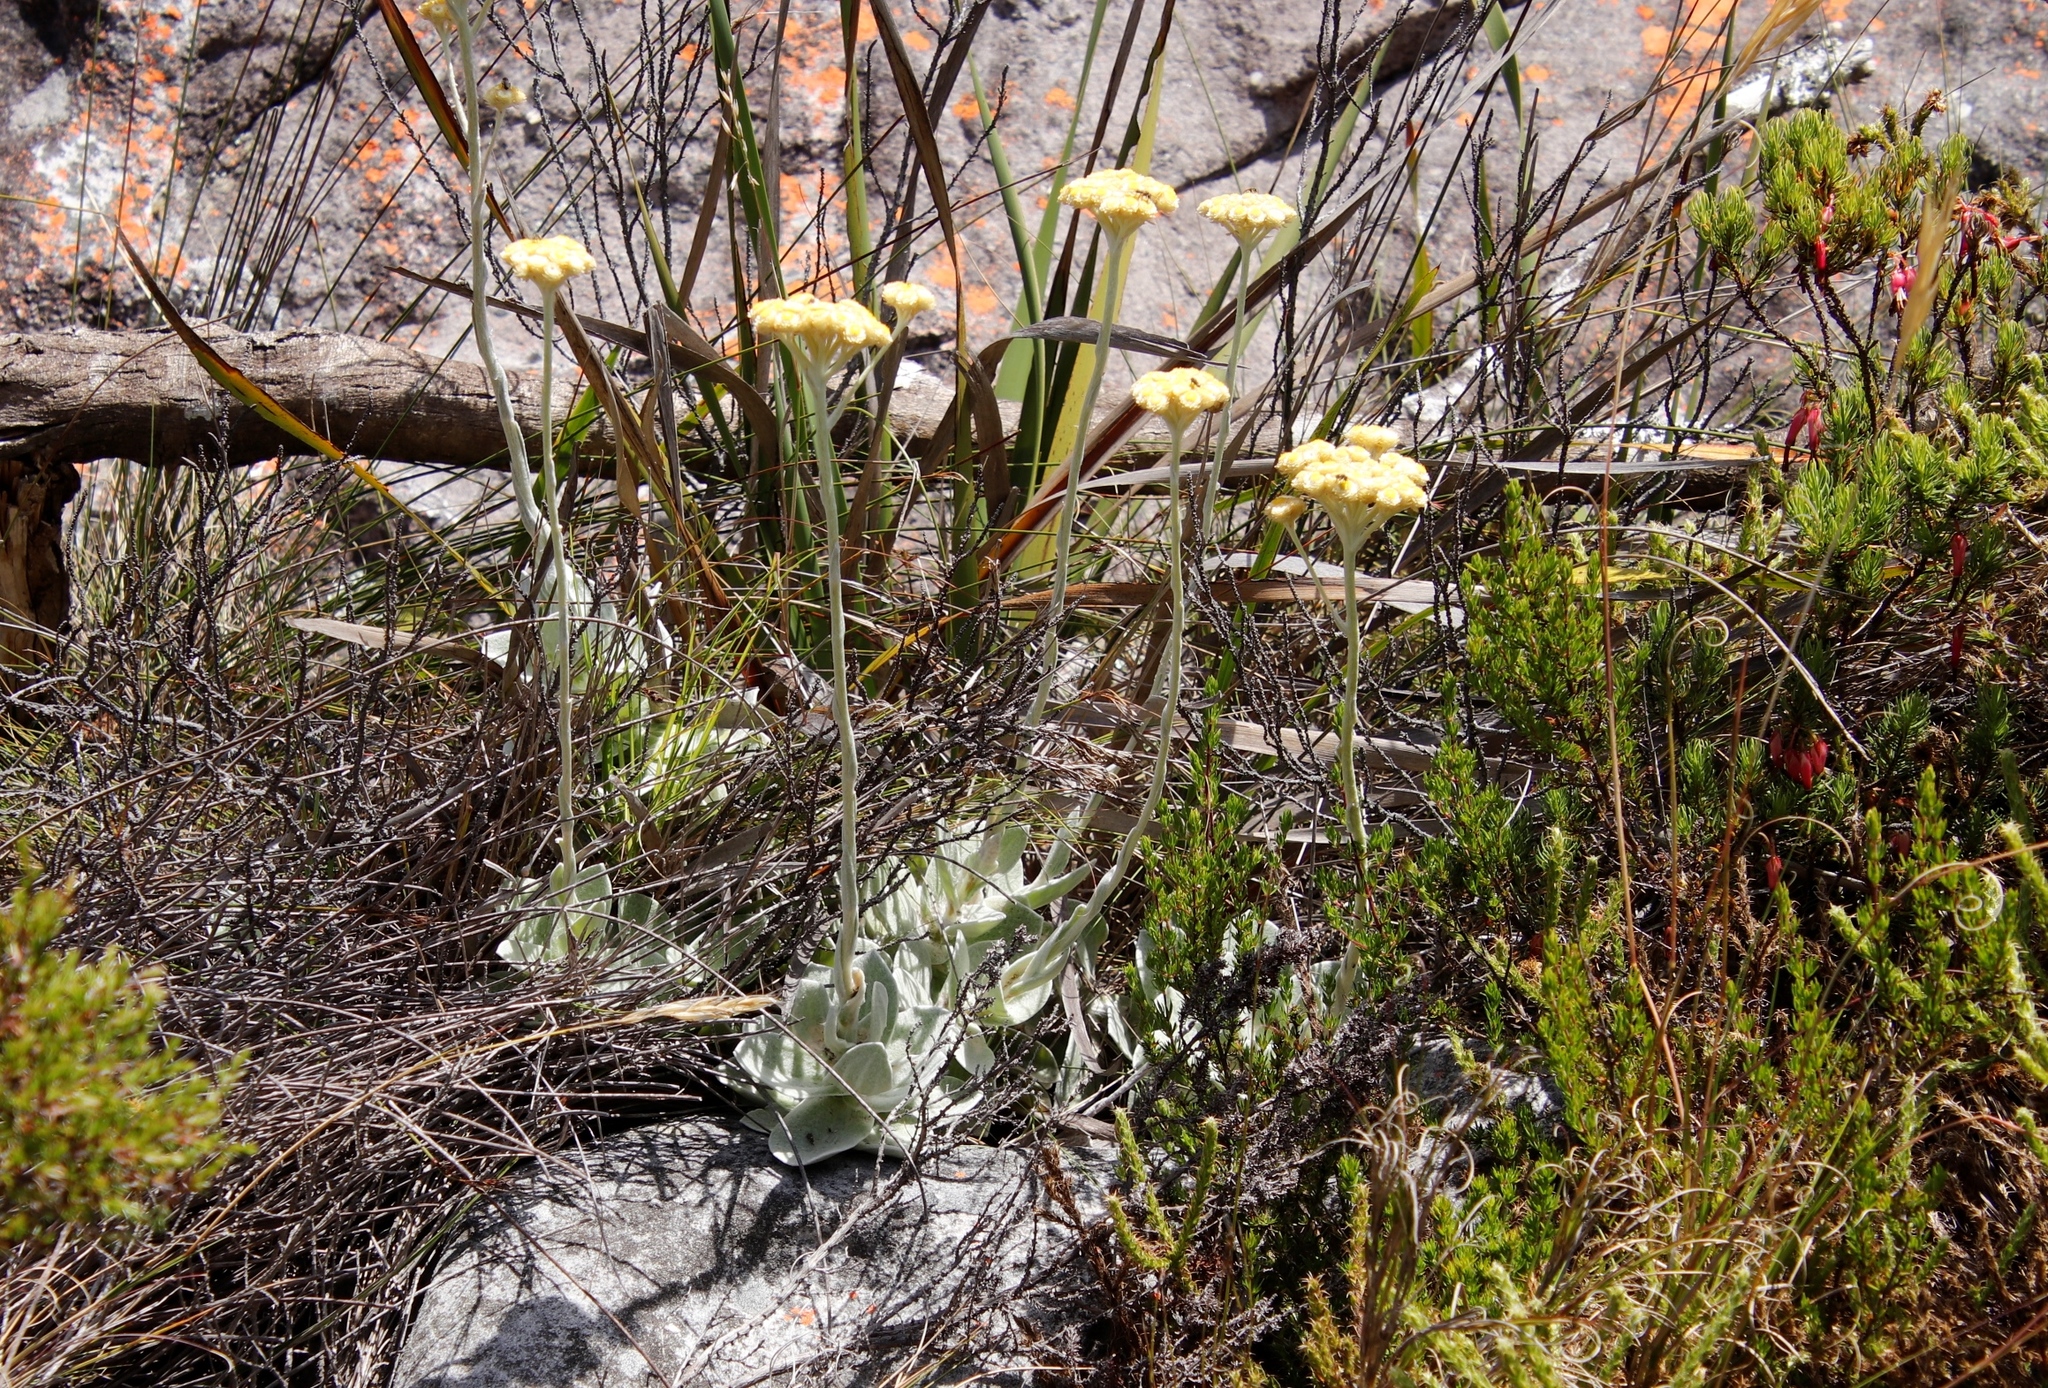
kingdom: Plantae
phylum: Tracheophyta
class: Magnoliopsida
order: Asterales
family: Asteraceae
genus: Helichrysum
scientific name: Helichrysum grandiflorum
